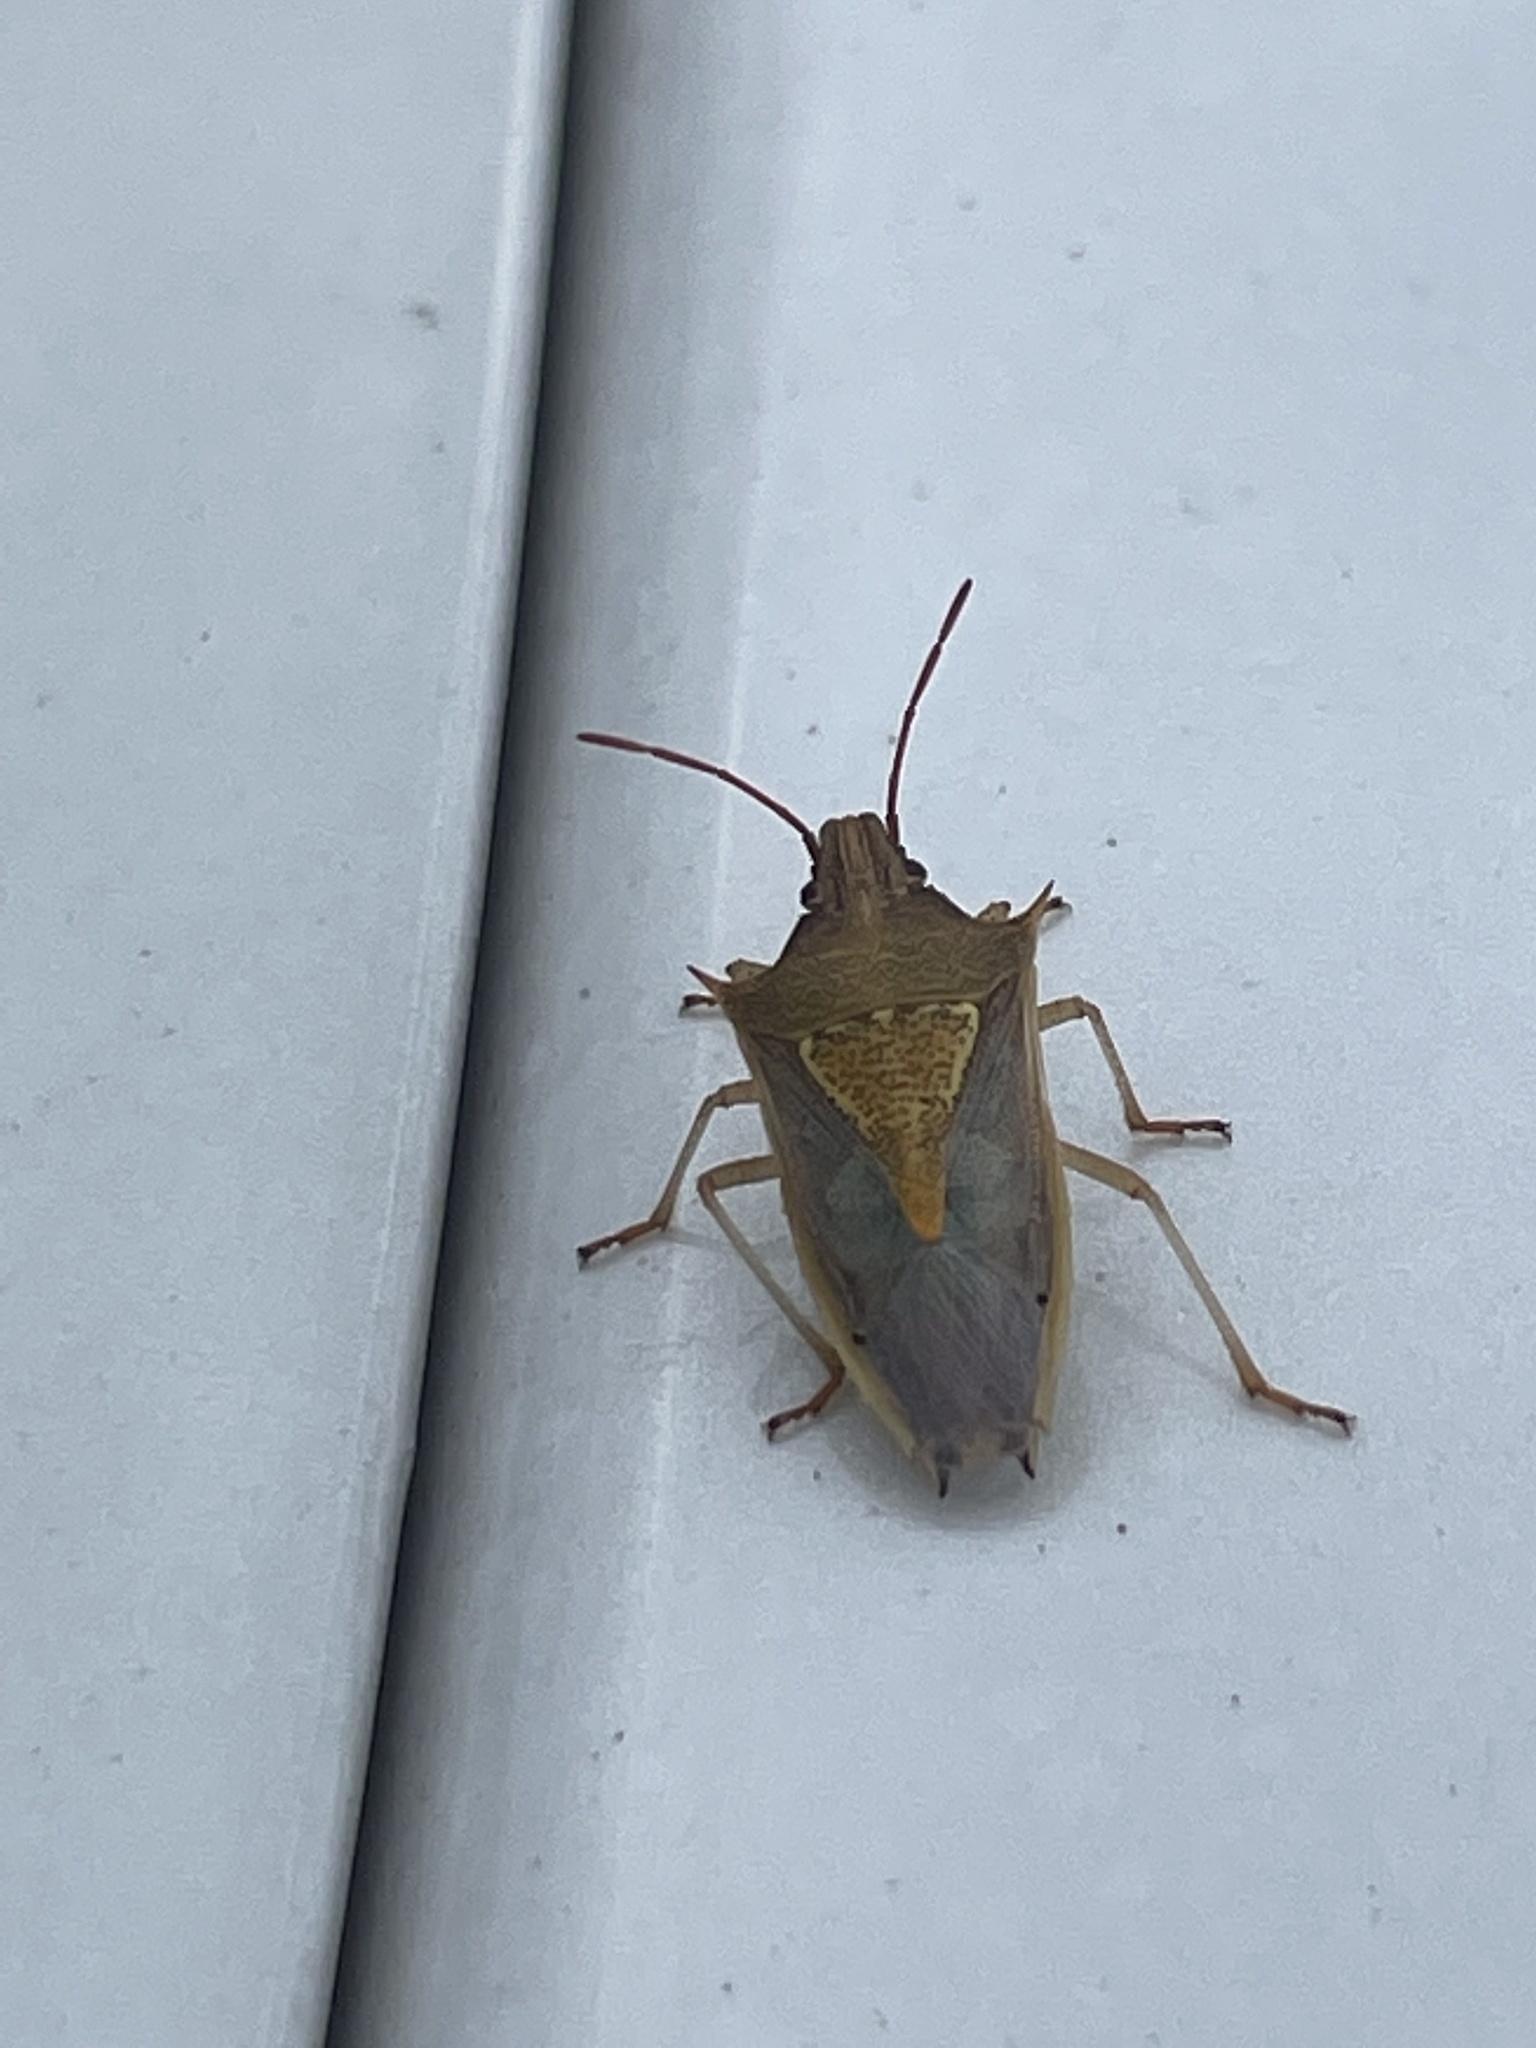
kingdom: Animalia
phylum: Arthropoda
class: Insecta
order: Hemiptera
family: Pentatomidae
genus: Oebalus
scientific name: Oebalus pugnax
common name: Rice stink bug
